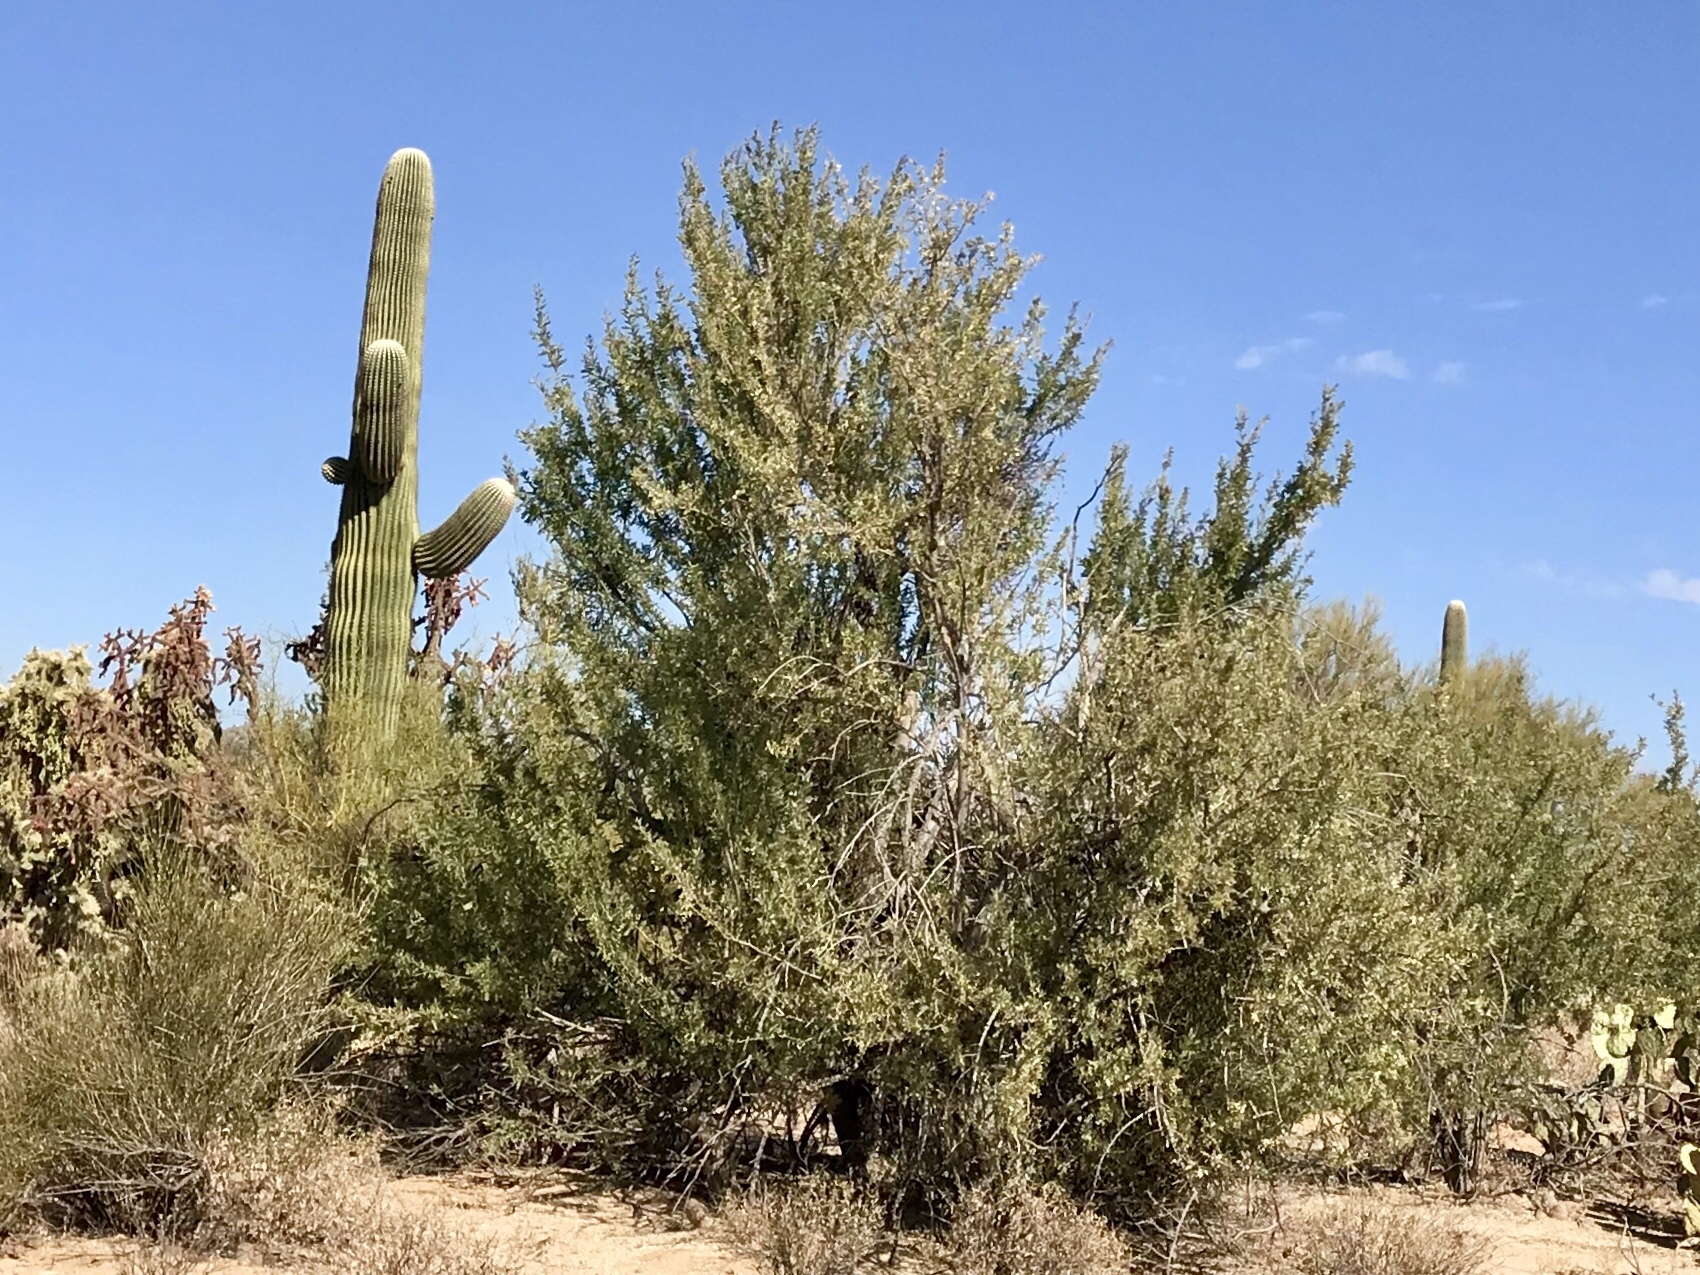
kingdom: Plantae
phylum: Tracheophyta
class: Magnoliopsida
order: Fabales
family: Fabaceae
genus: Olneya
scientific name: Olneya tesota
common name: Desert ironwood
